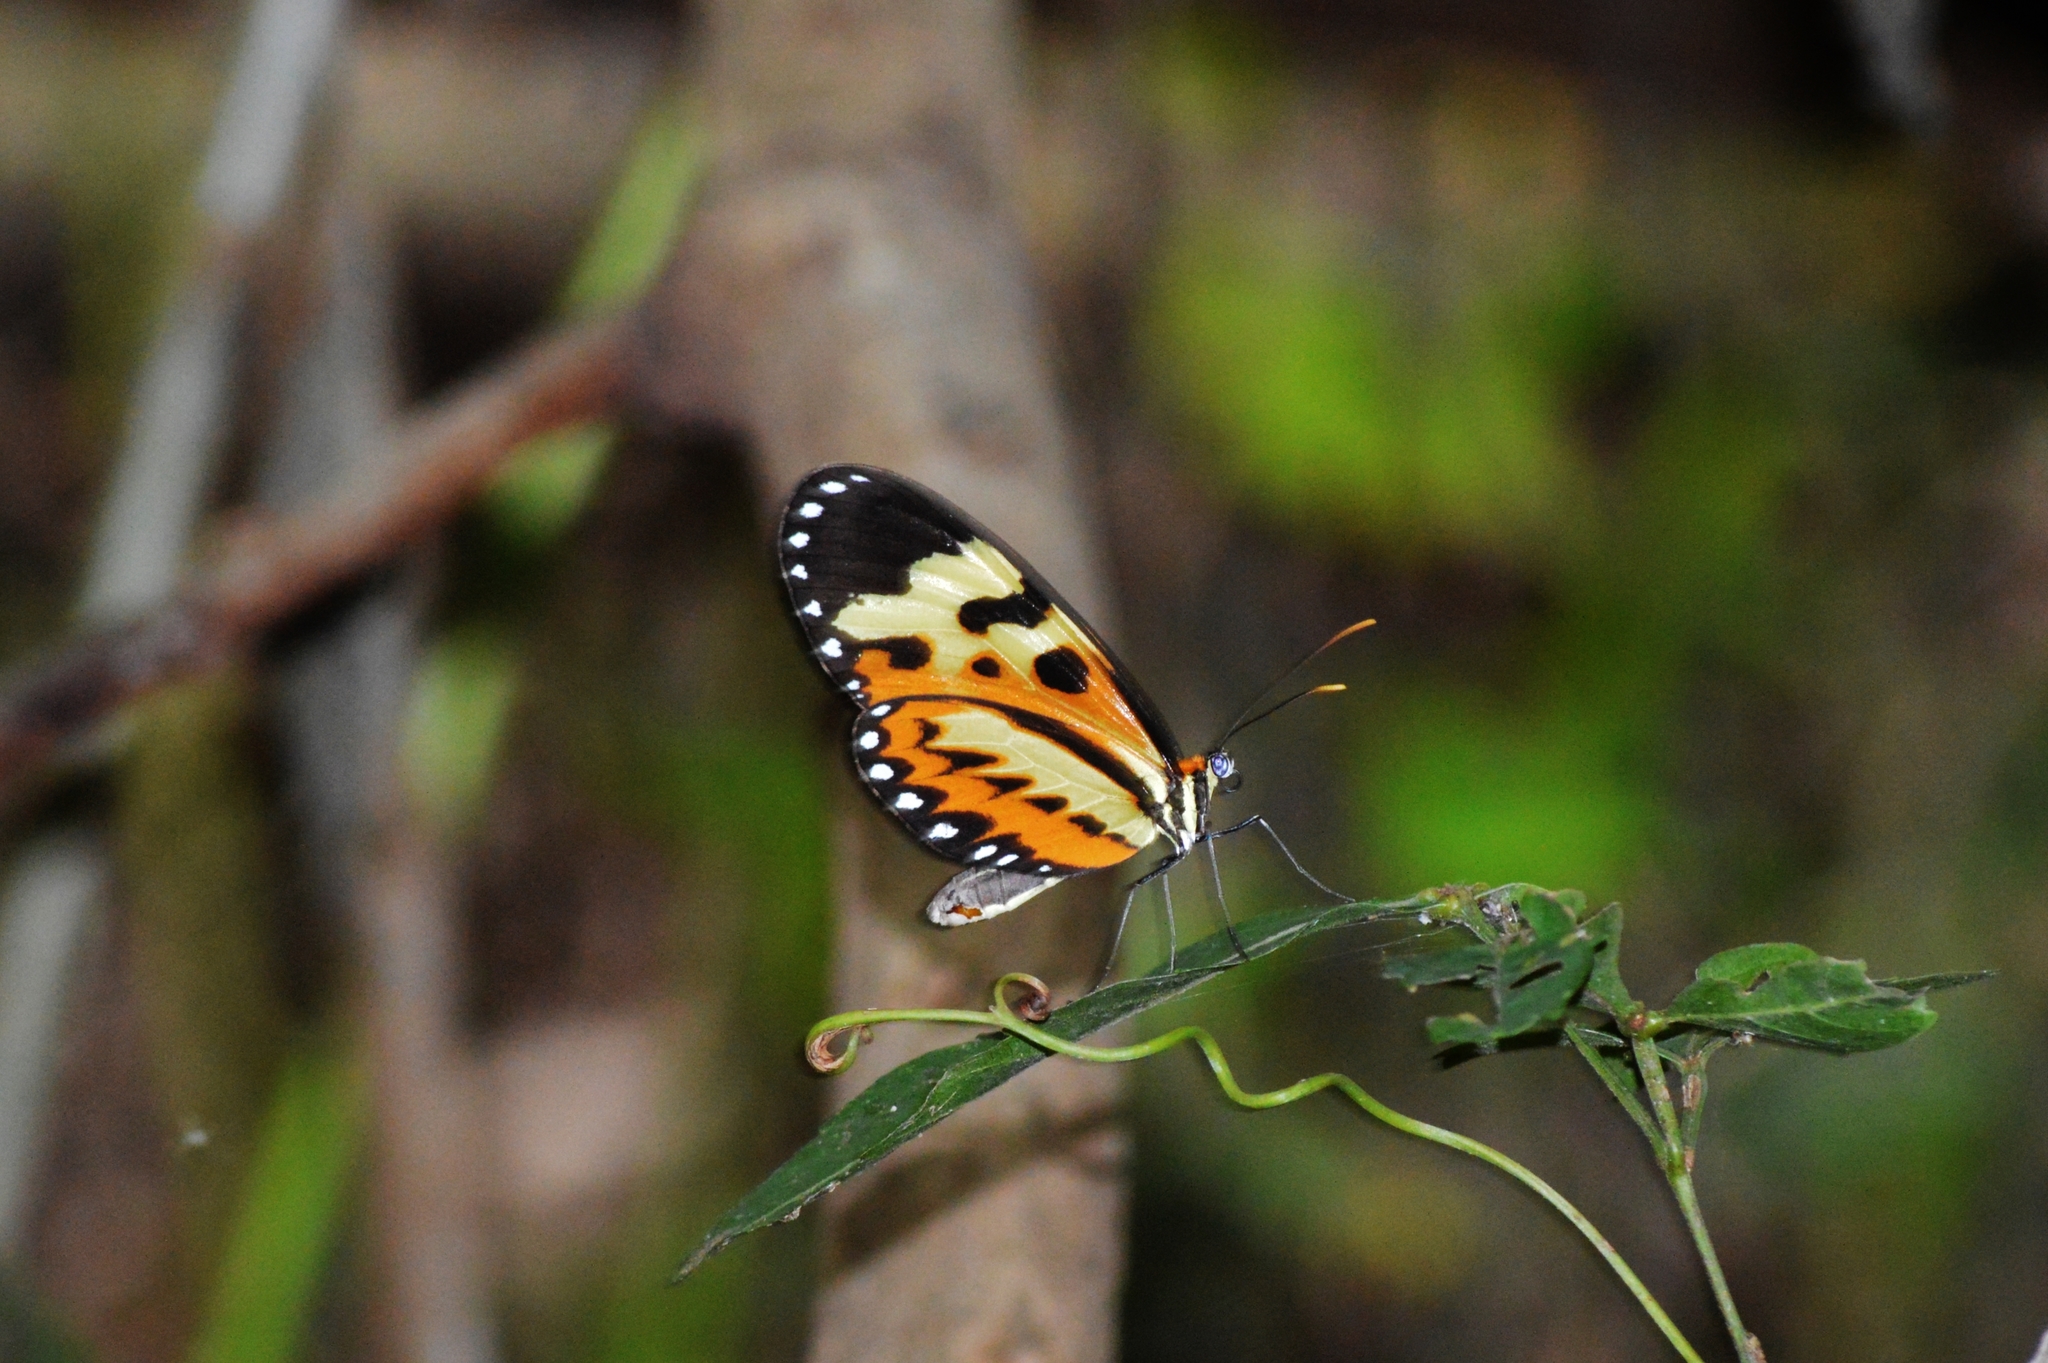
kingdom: Animalia
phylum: Arthropoda
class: Insecta
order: Lepidoptera
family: Nymphalidae
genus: Mechanitis
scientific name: Mechanitis polymnia
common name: Disturbed tigerwing
